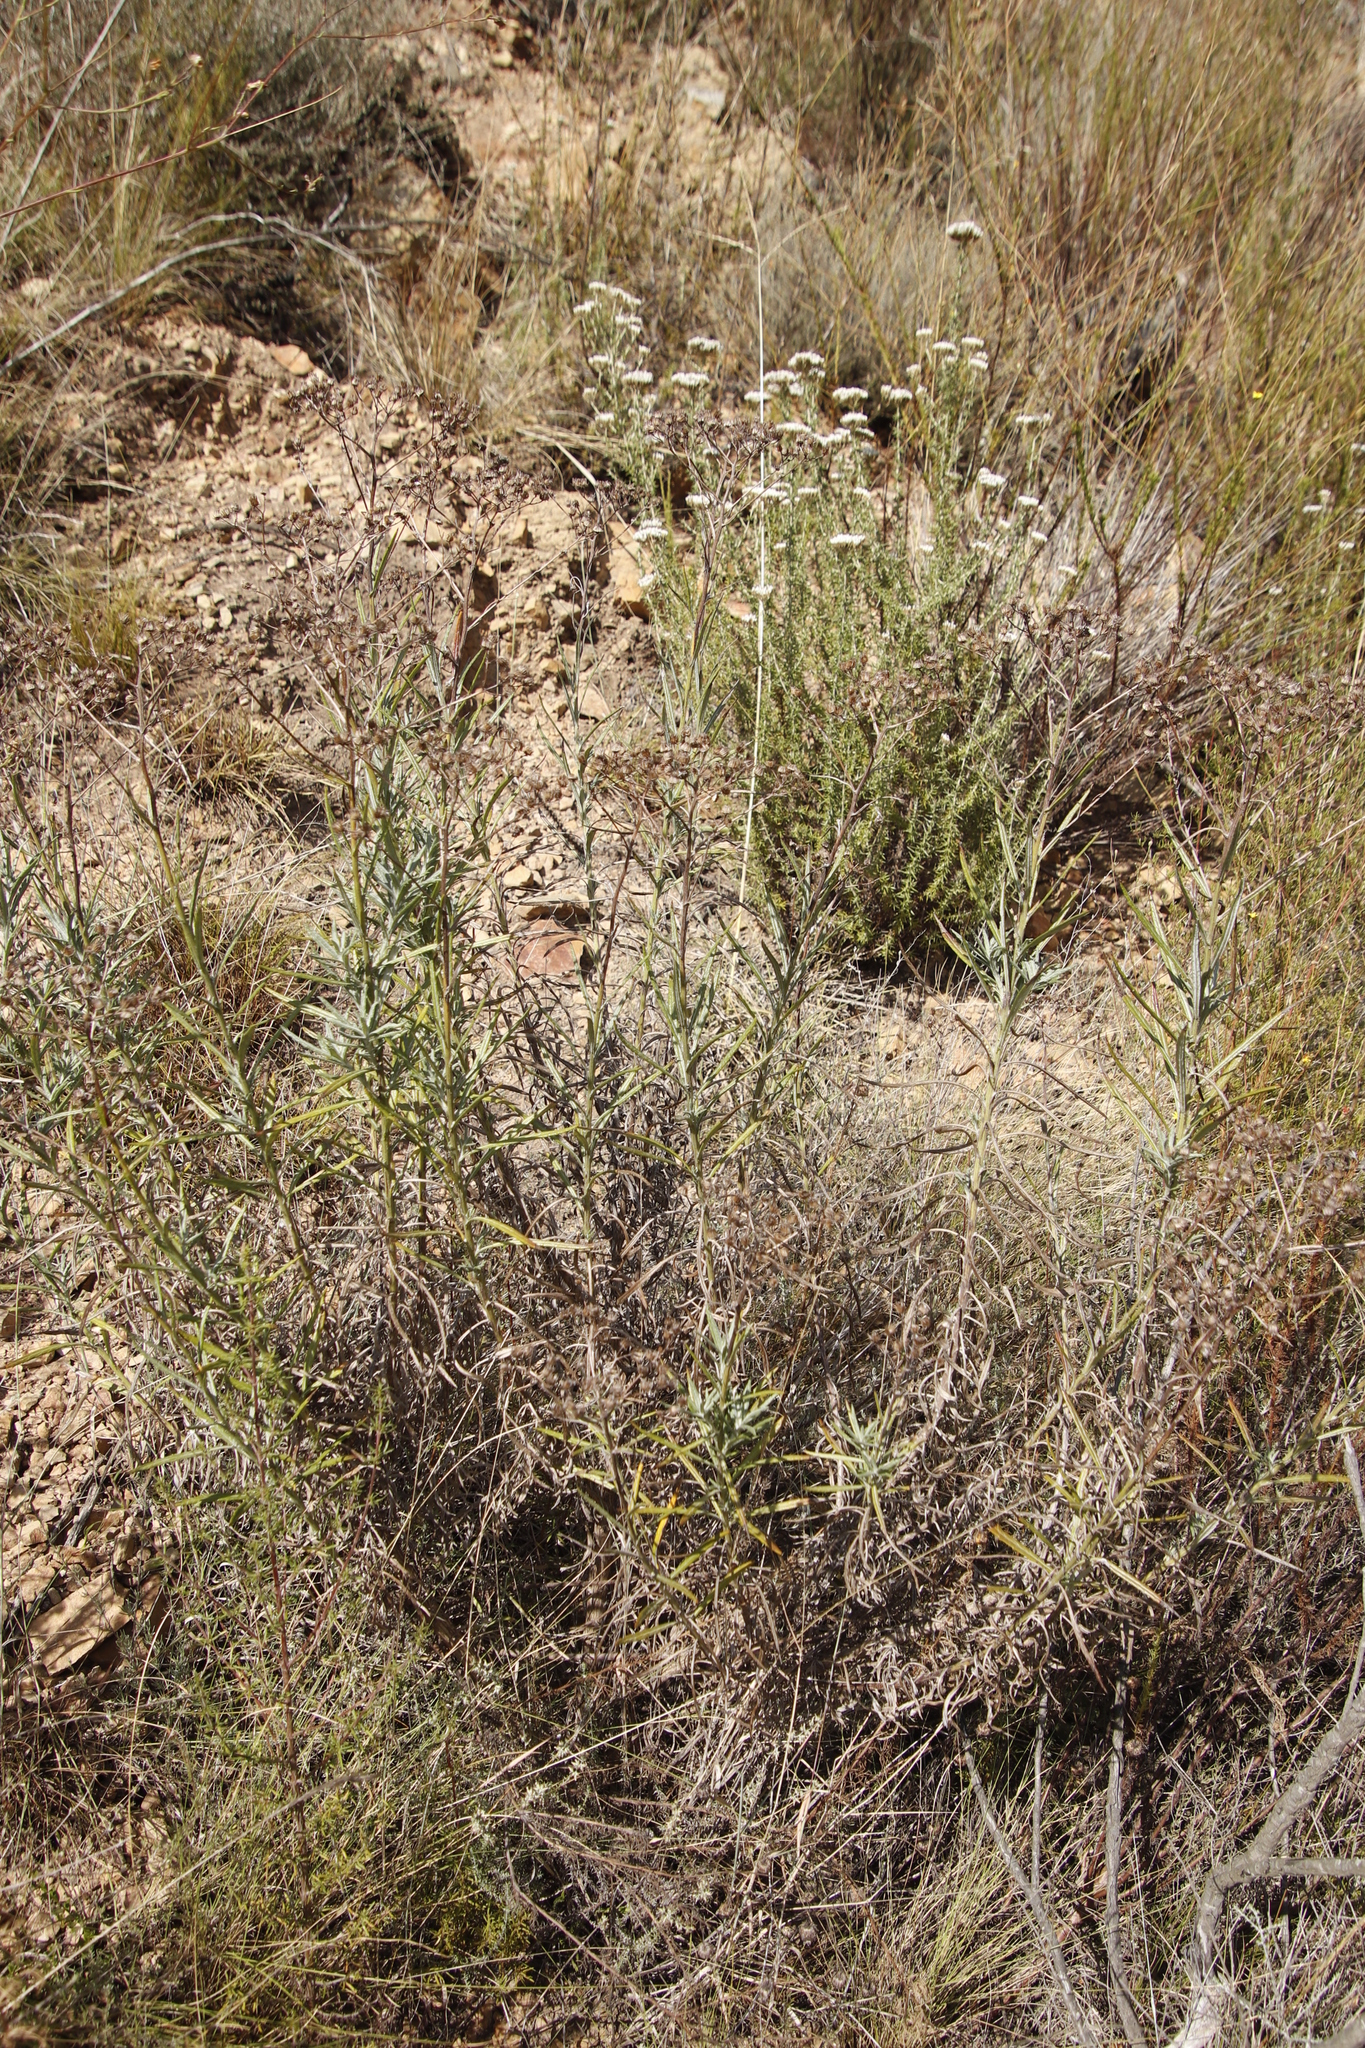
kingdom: Plantae
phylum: Tracheophyta
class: Magnoliopsida
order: Asterales
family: Asteraceae
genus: Senecio
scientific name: Senecio pterophorus
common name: Shoddy ragwort
